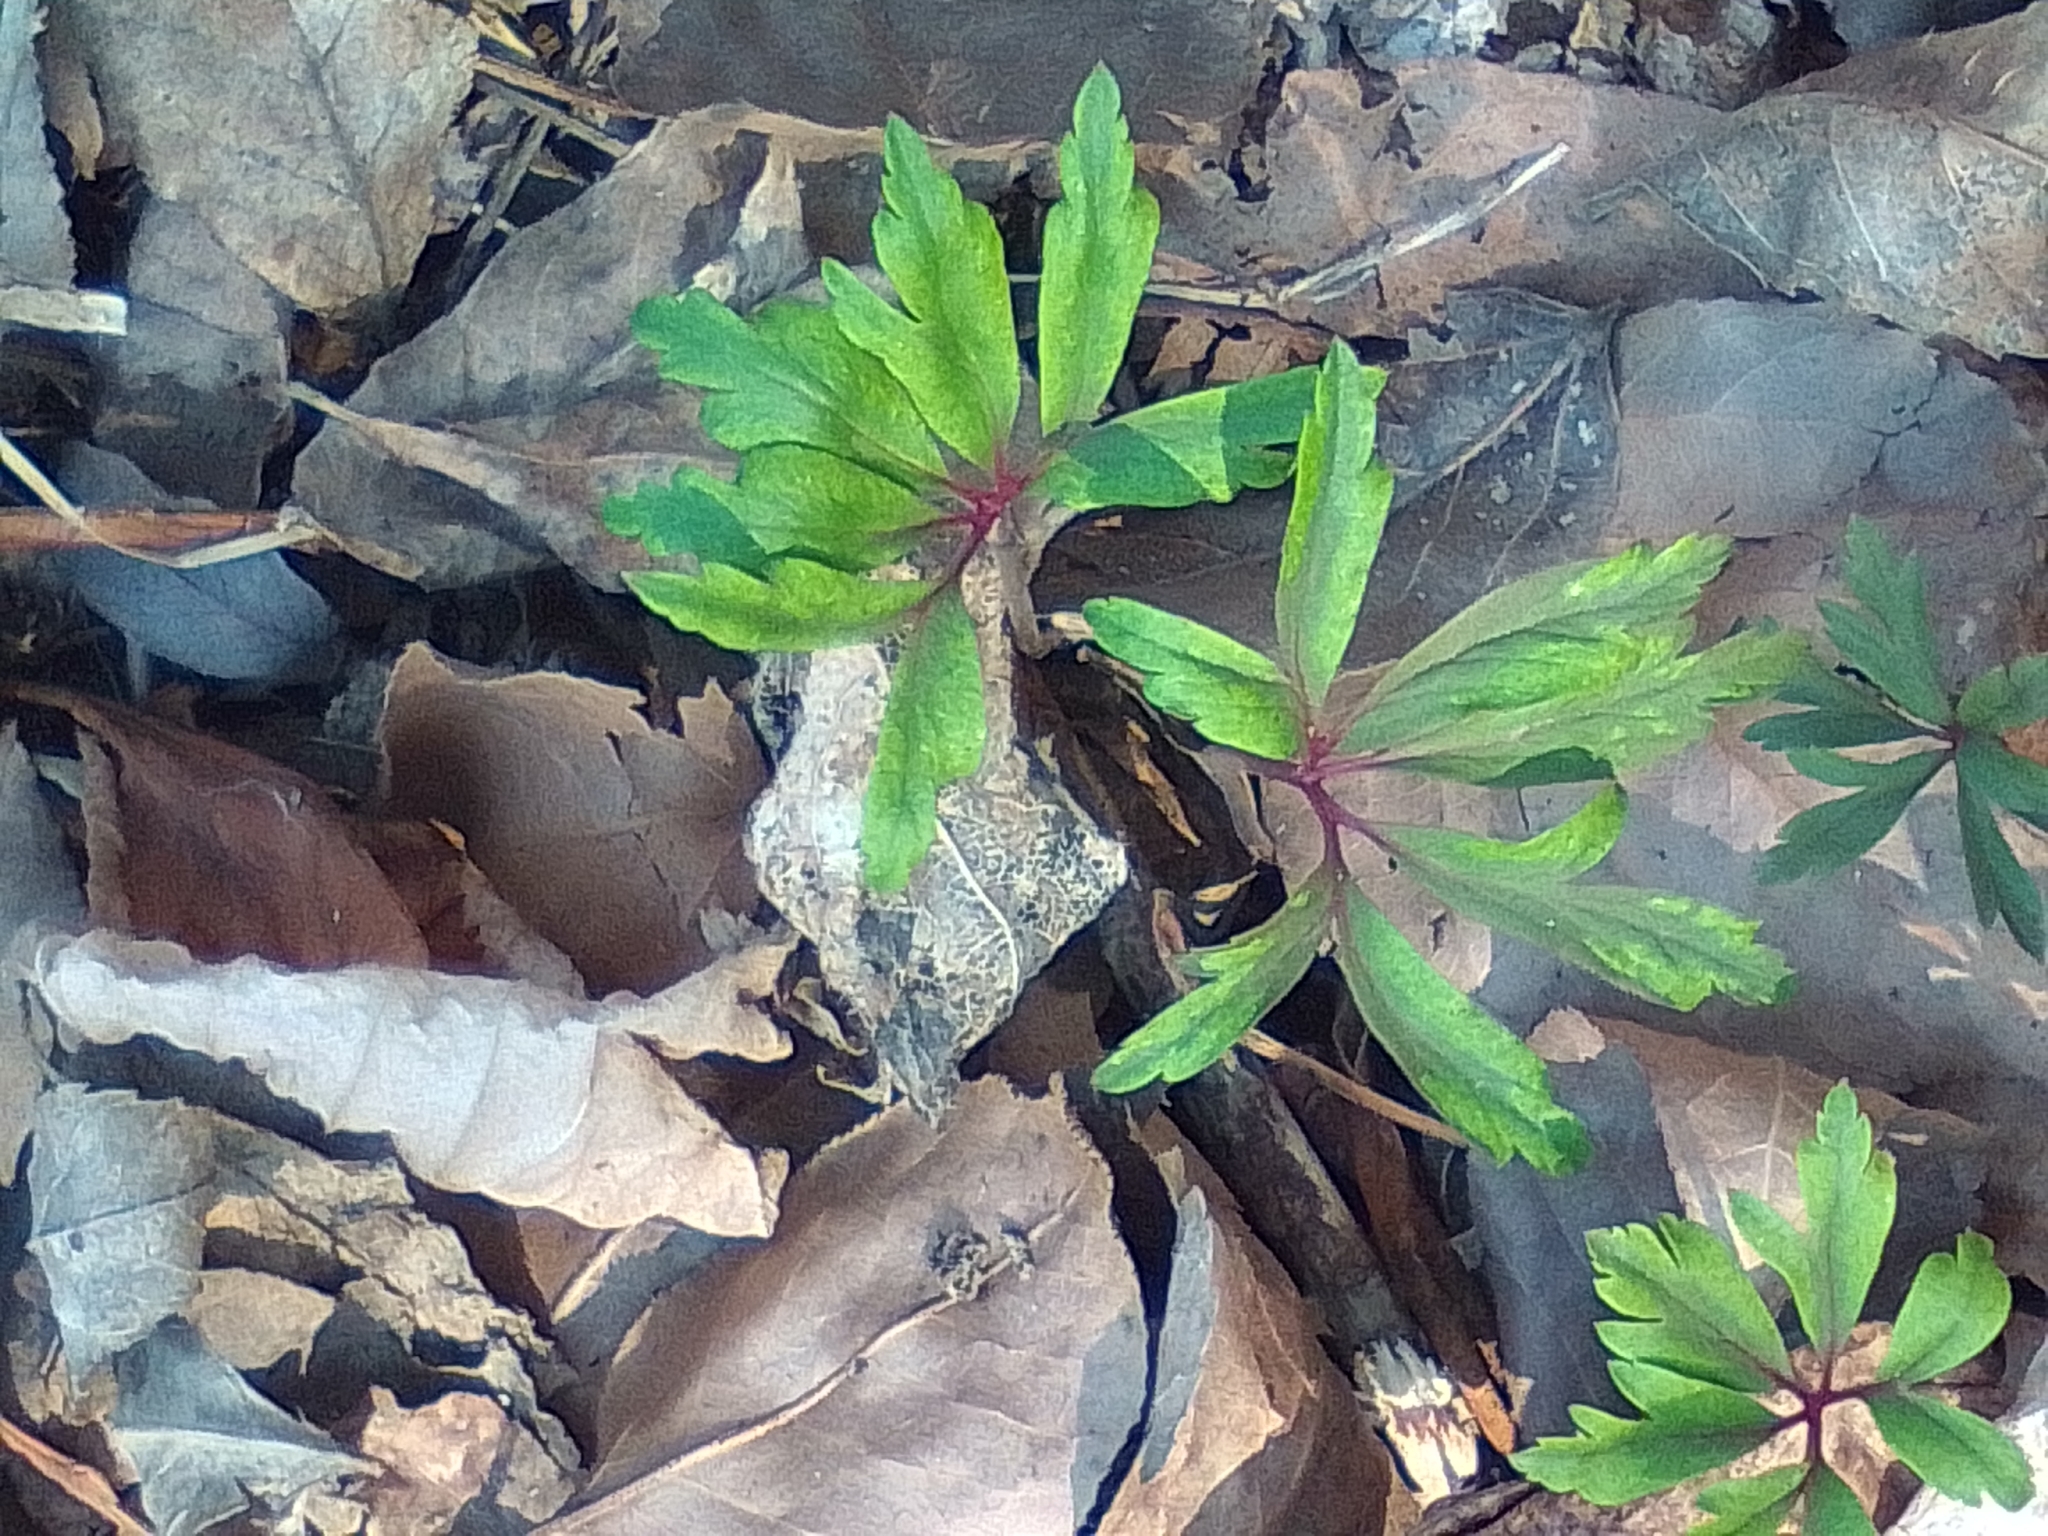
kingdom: Plantae
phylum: Tracheophyta
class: Magnoliopsida
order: Ranunculales
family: Ranunculaceae
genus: Anemone
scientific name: Anemone ranunculoides
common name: Yellow anemone
